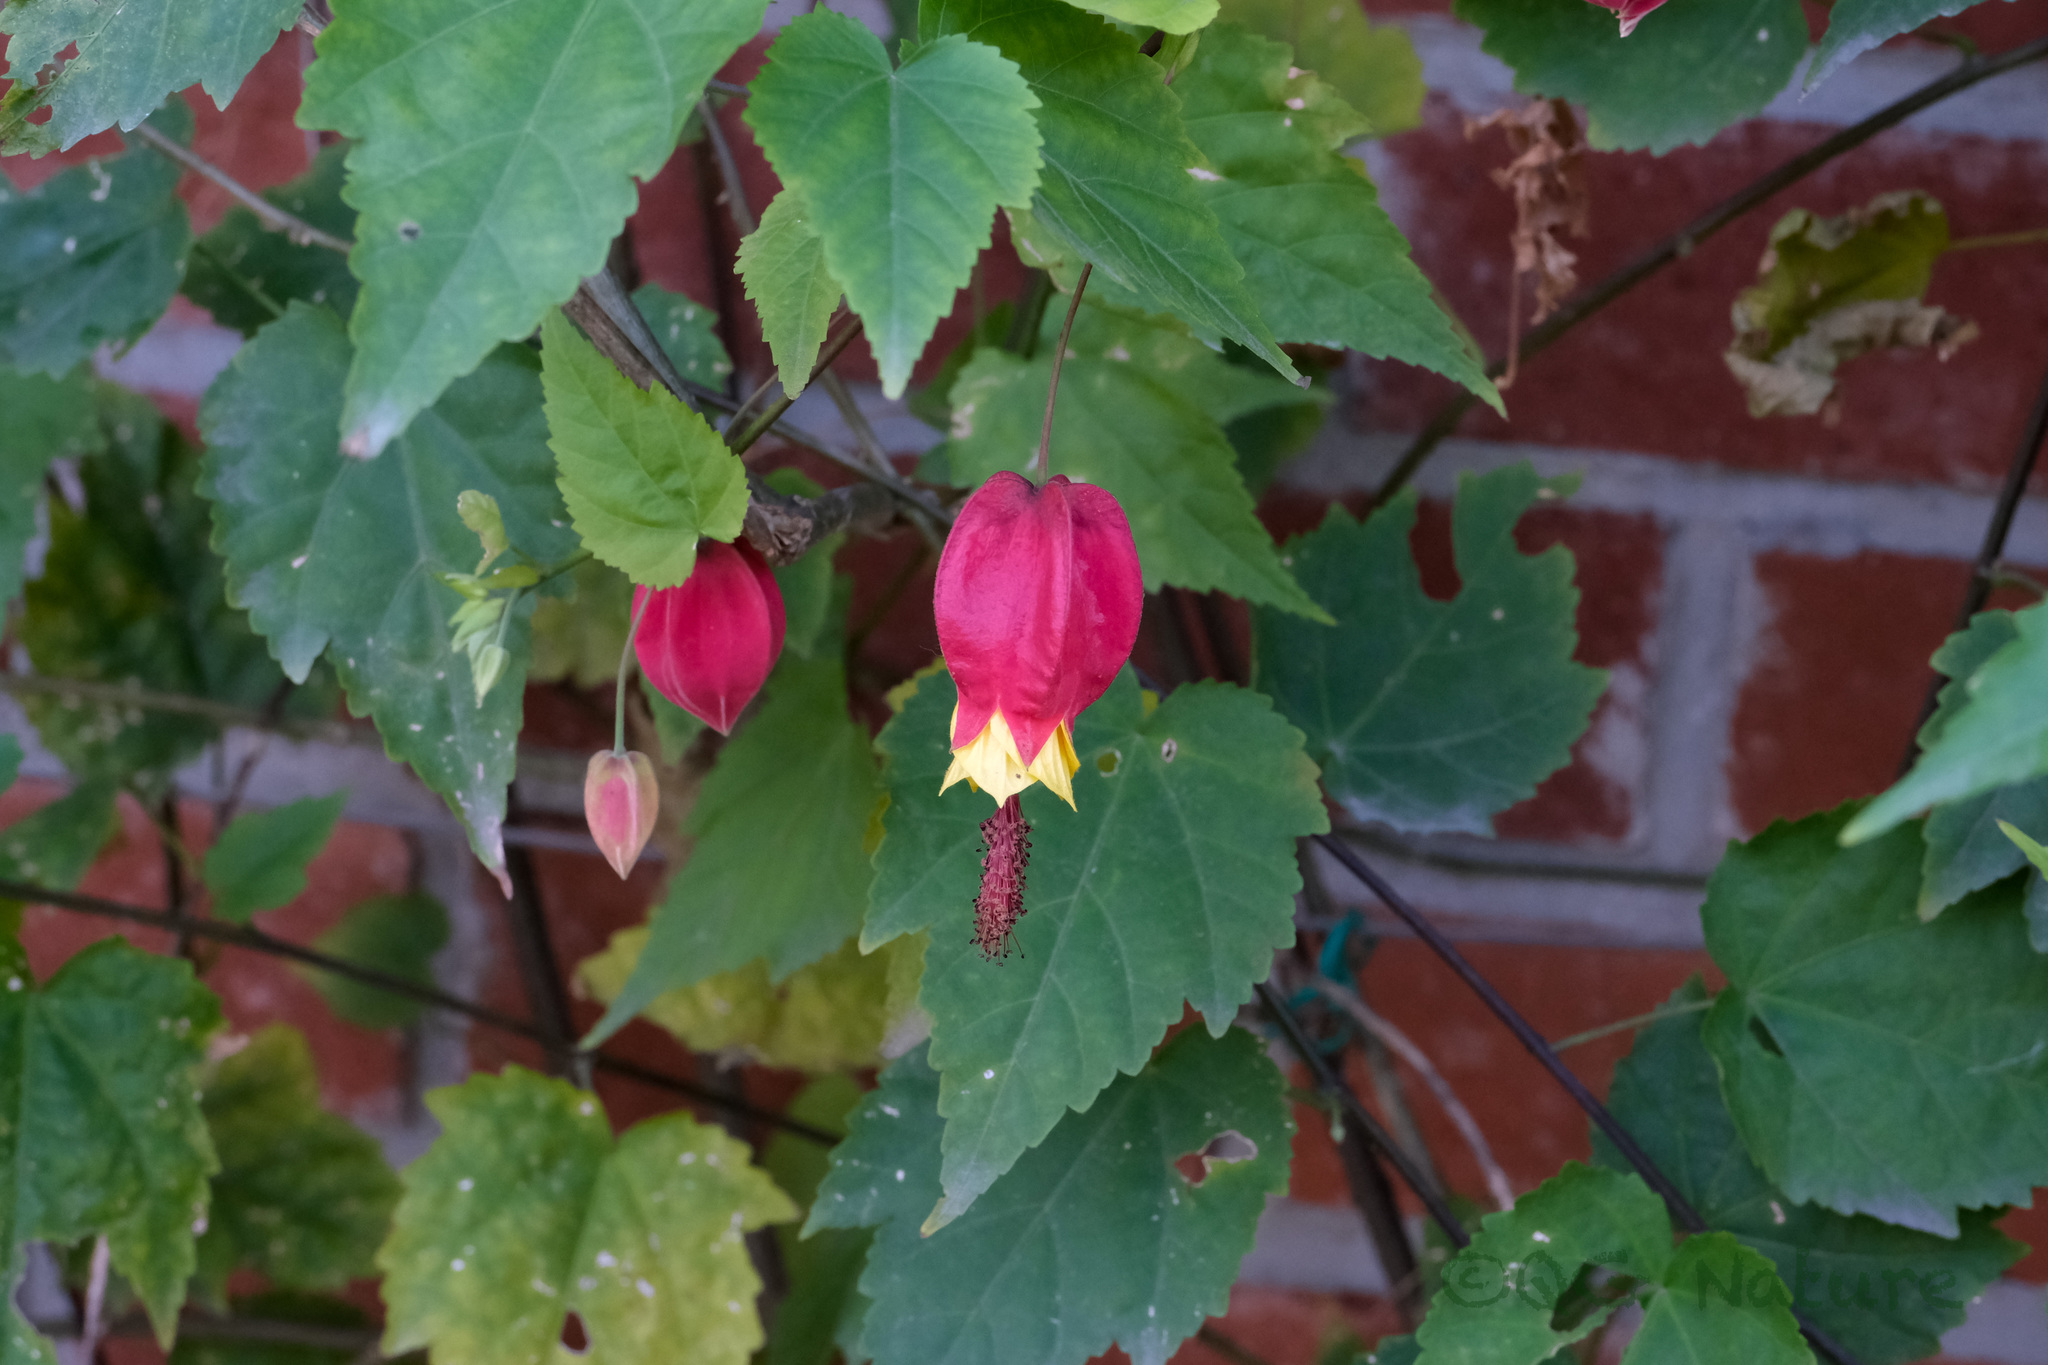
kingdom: Plantae
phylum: Tracheophyta
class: Magnoliopsida
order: Malvales
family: Malvaceae
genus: Callianthe
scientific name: Callianthe megapotamica
